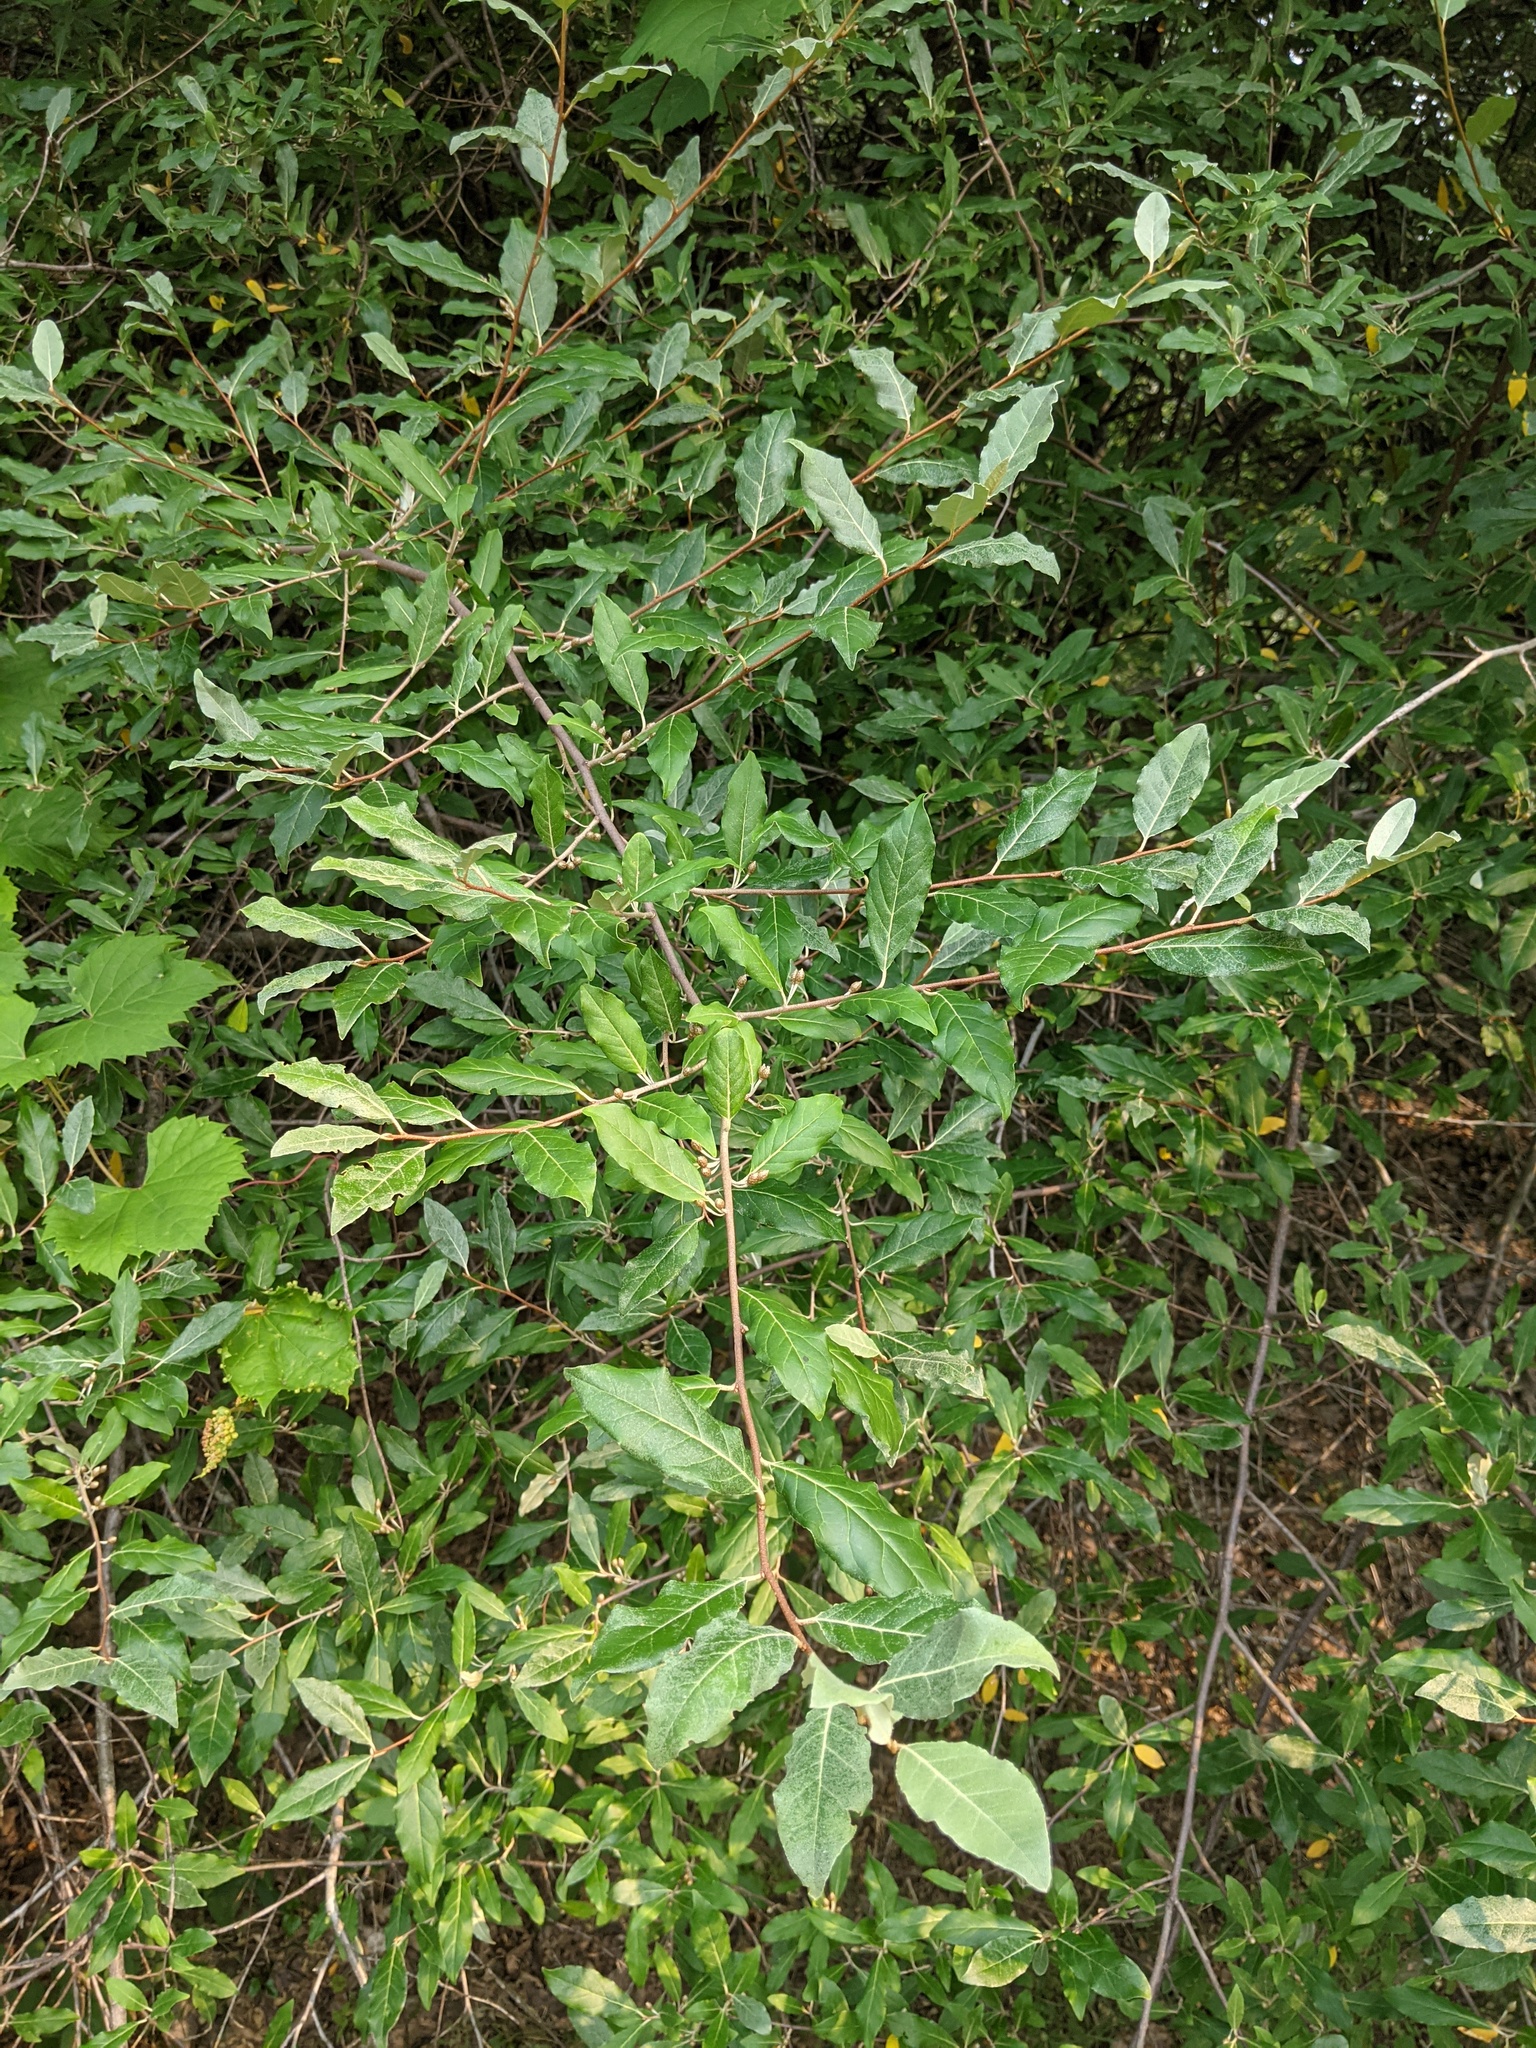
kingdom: Plantae
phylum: Tracheophyta
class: Magnoliopsida
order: Rosales
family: Elaeagnaceae
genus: Elaeagnus
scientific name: Elaeagnus umbellata
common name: Autumn olive
